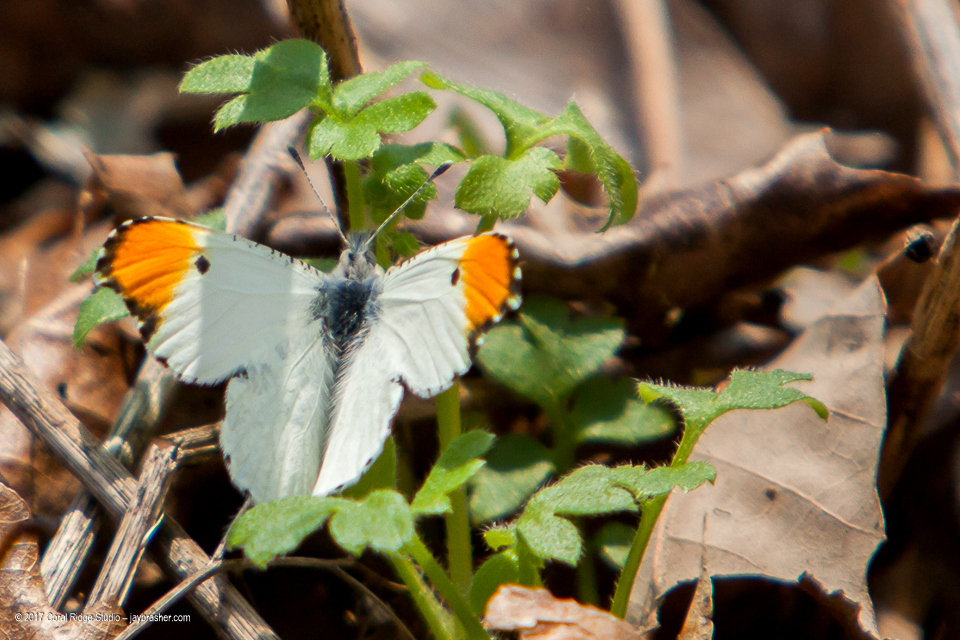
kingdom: Animalia
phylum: Arthropoda
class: Insecta
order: Lepidoptera
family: Pieridae
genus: Anthocharis
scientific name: Anthocharis midea
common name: Falcate orangetip
